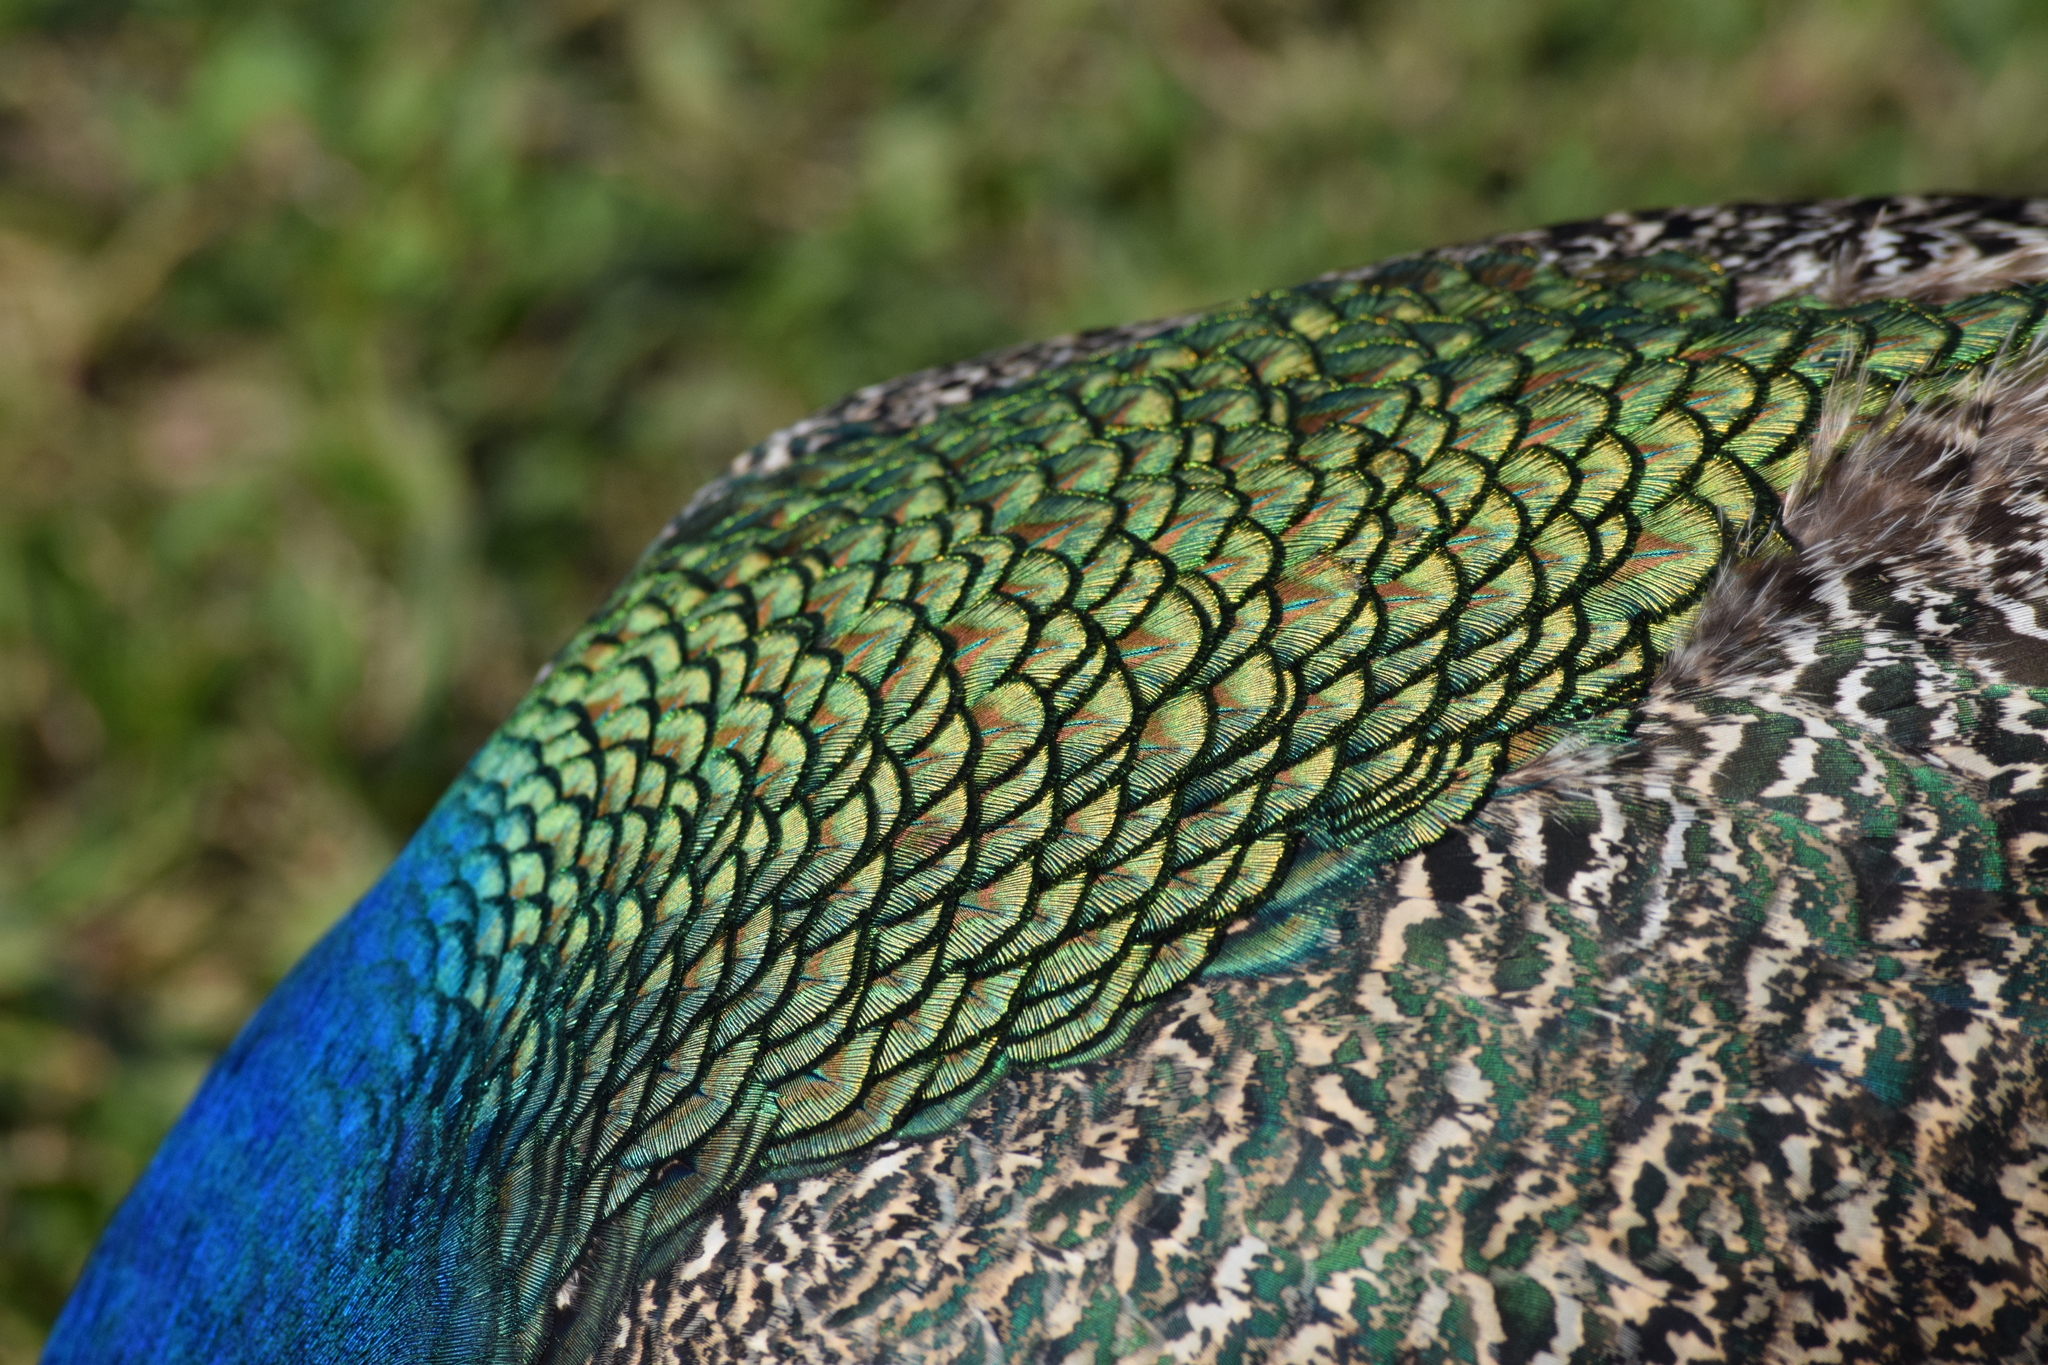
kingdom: Animalia
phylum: Chordata
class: Aves
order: Galliformes
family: Phasianidae
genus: Pavo
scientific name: Pavo cristatus
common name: Indian peafowl
